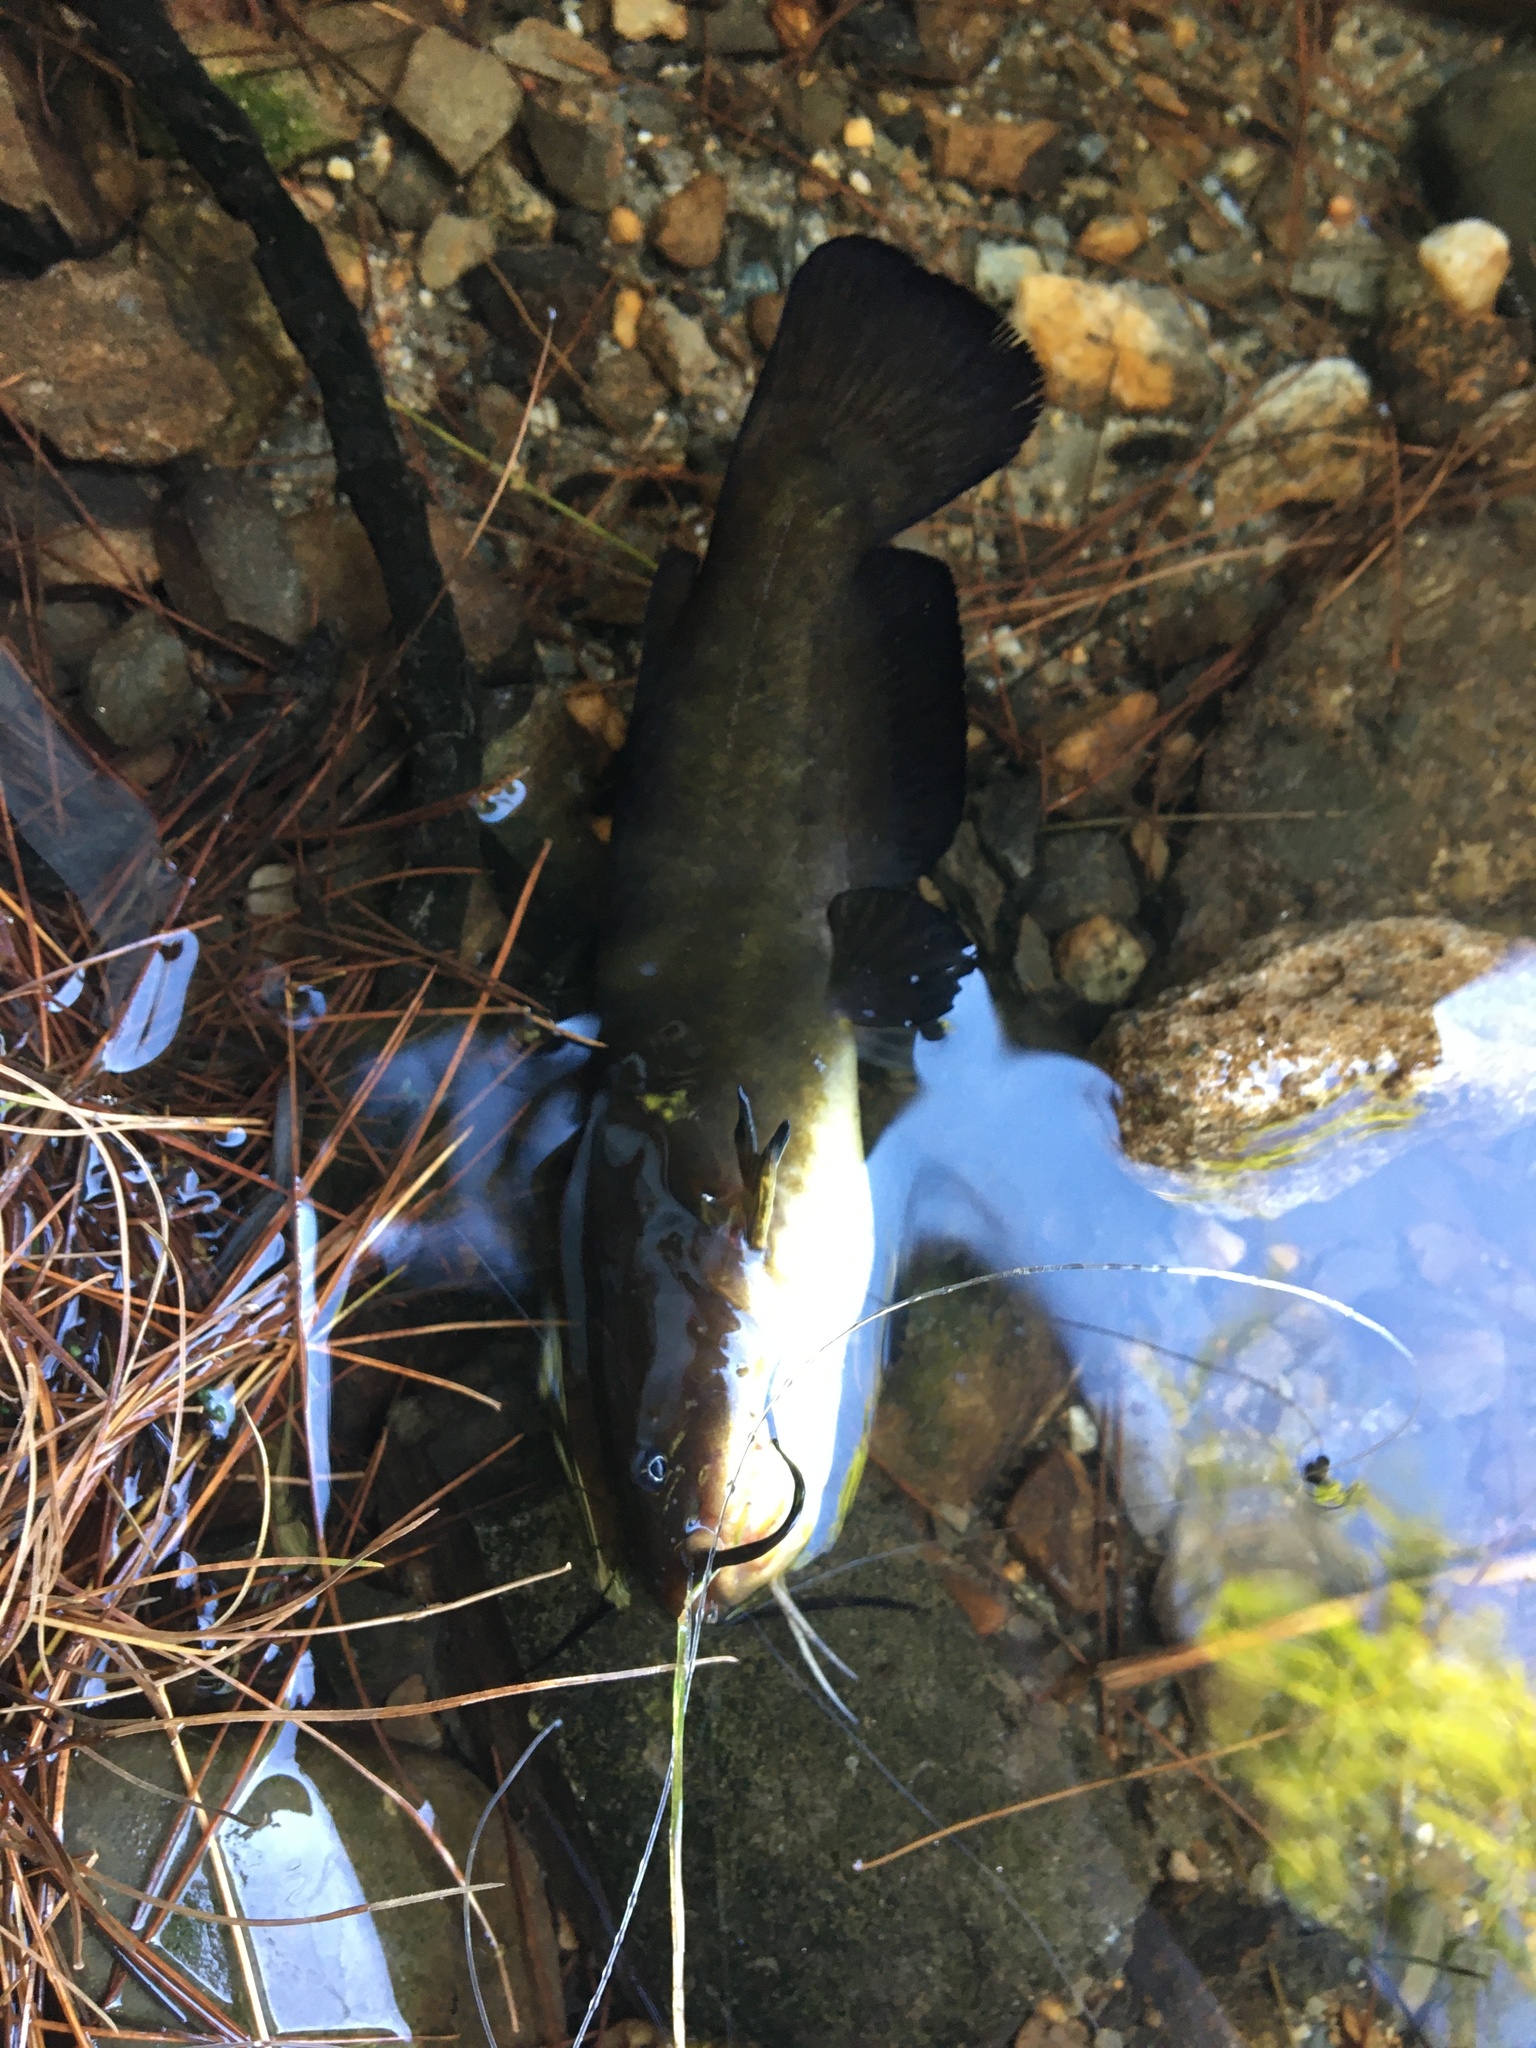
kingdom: Animalia
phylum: Chordata
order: Siluriformes
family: Ictaluridae
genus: Ameiurus
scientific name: Ameiurus nebulosus
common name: Brown bullhead
